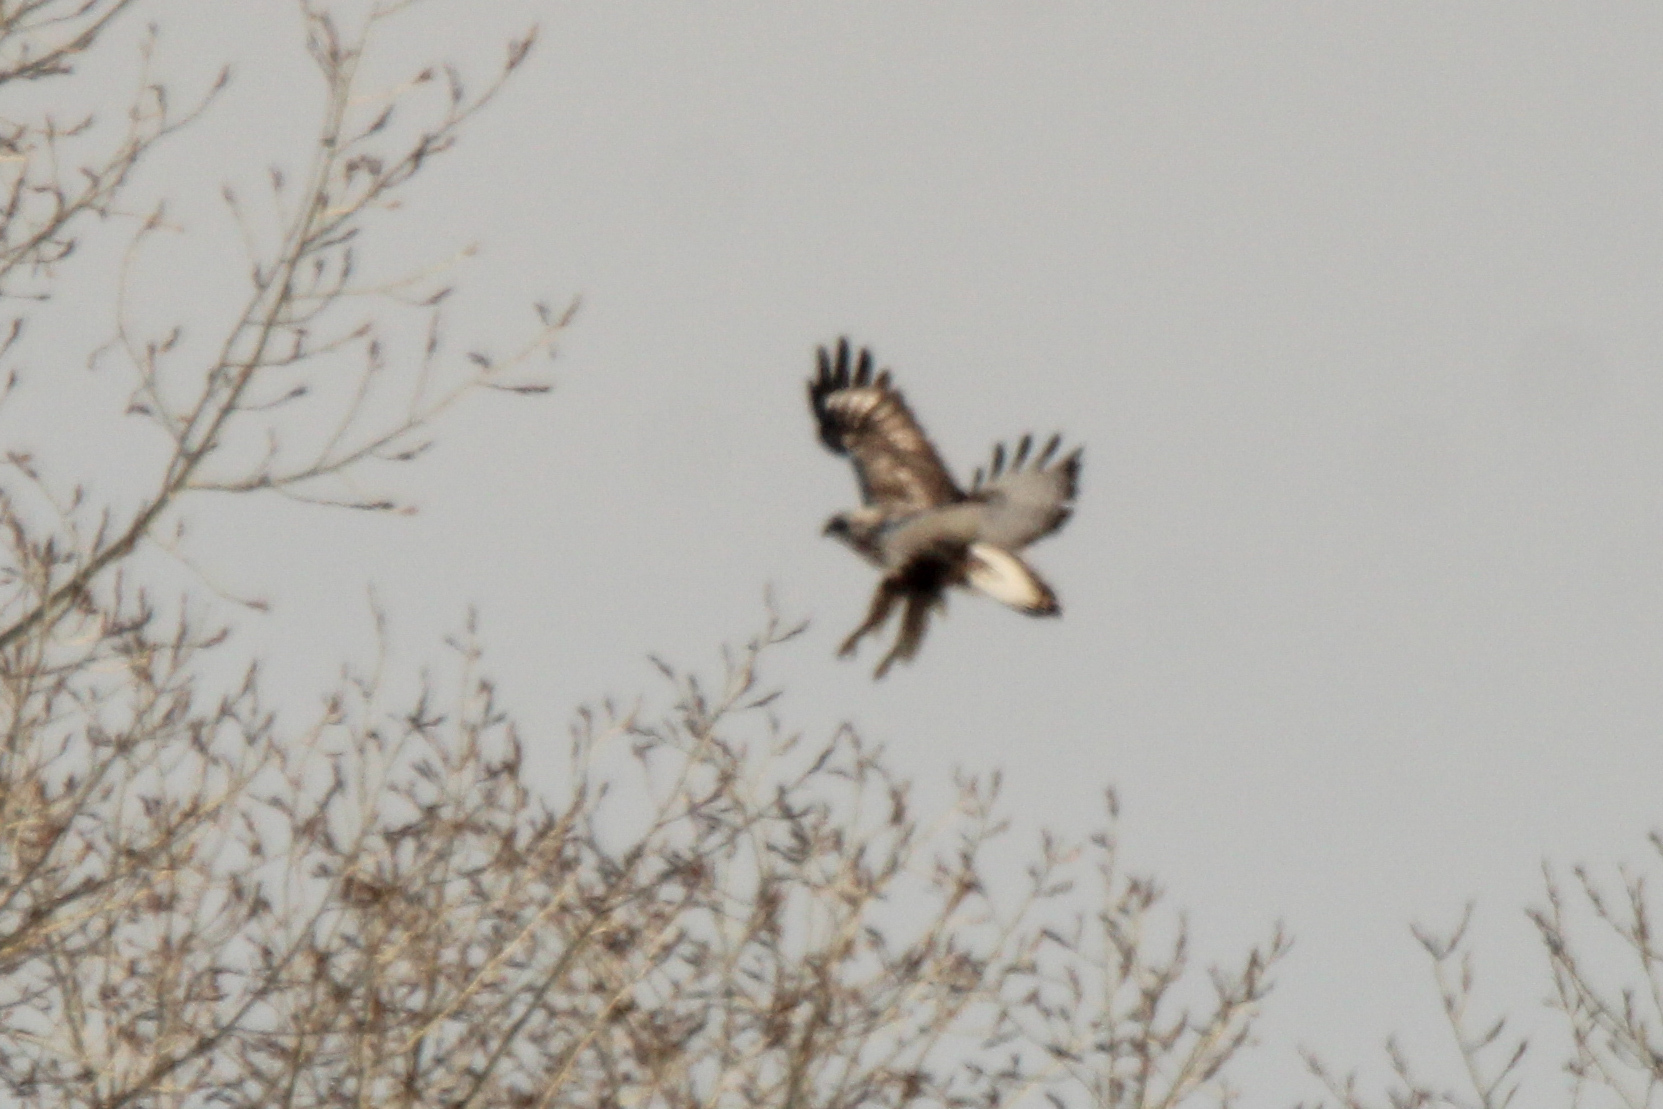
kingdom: Animalia
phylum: Chordata
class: Aves
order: Accipitriformes
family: Accipitridae
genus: Buteo
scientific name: Buteo lagopus
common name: Rough-legged buzzard
